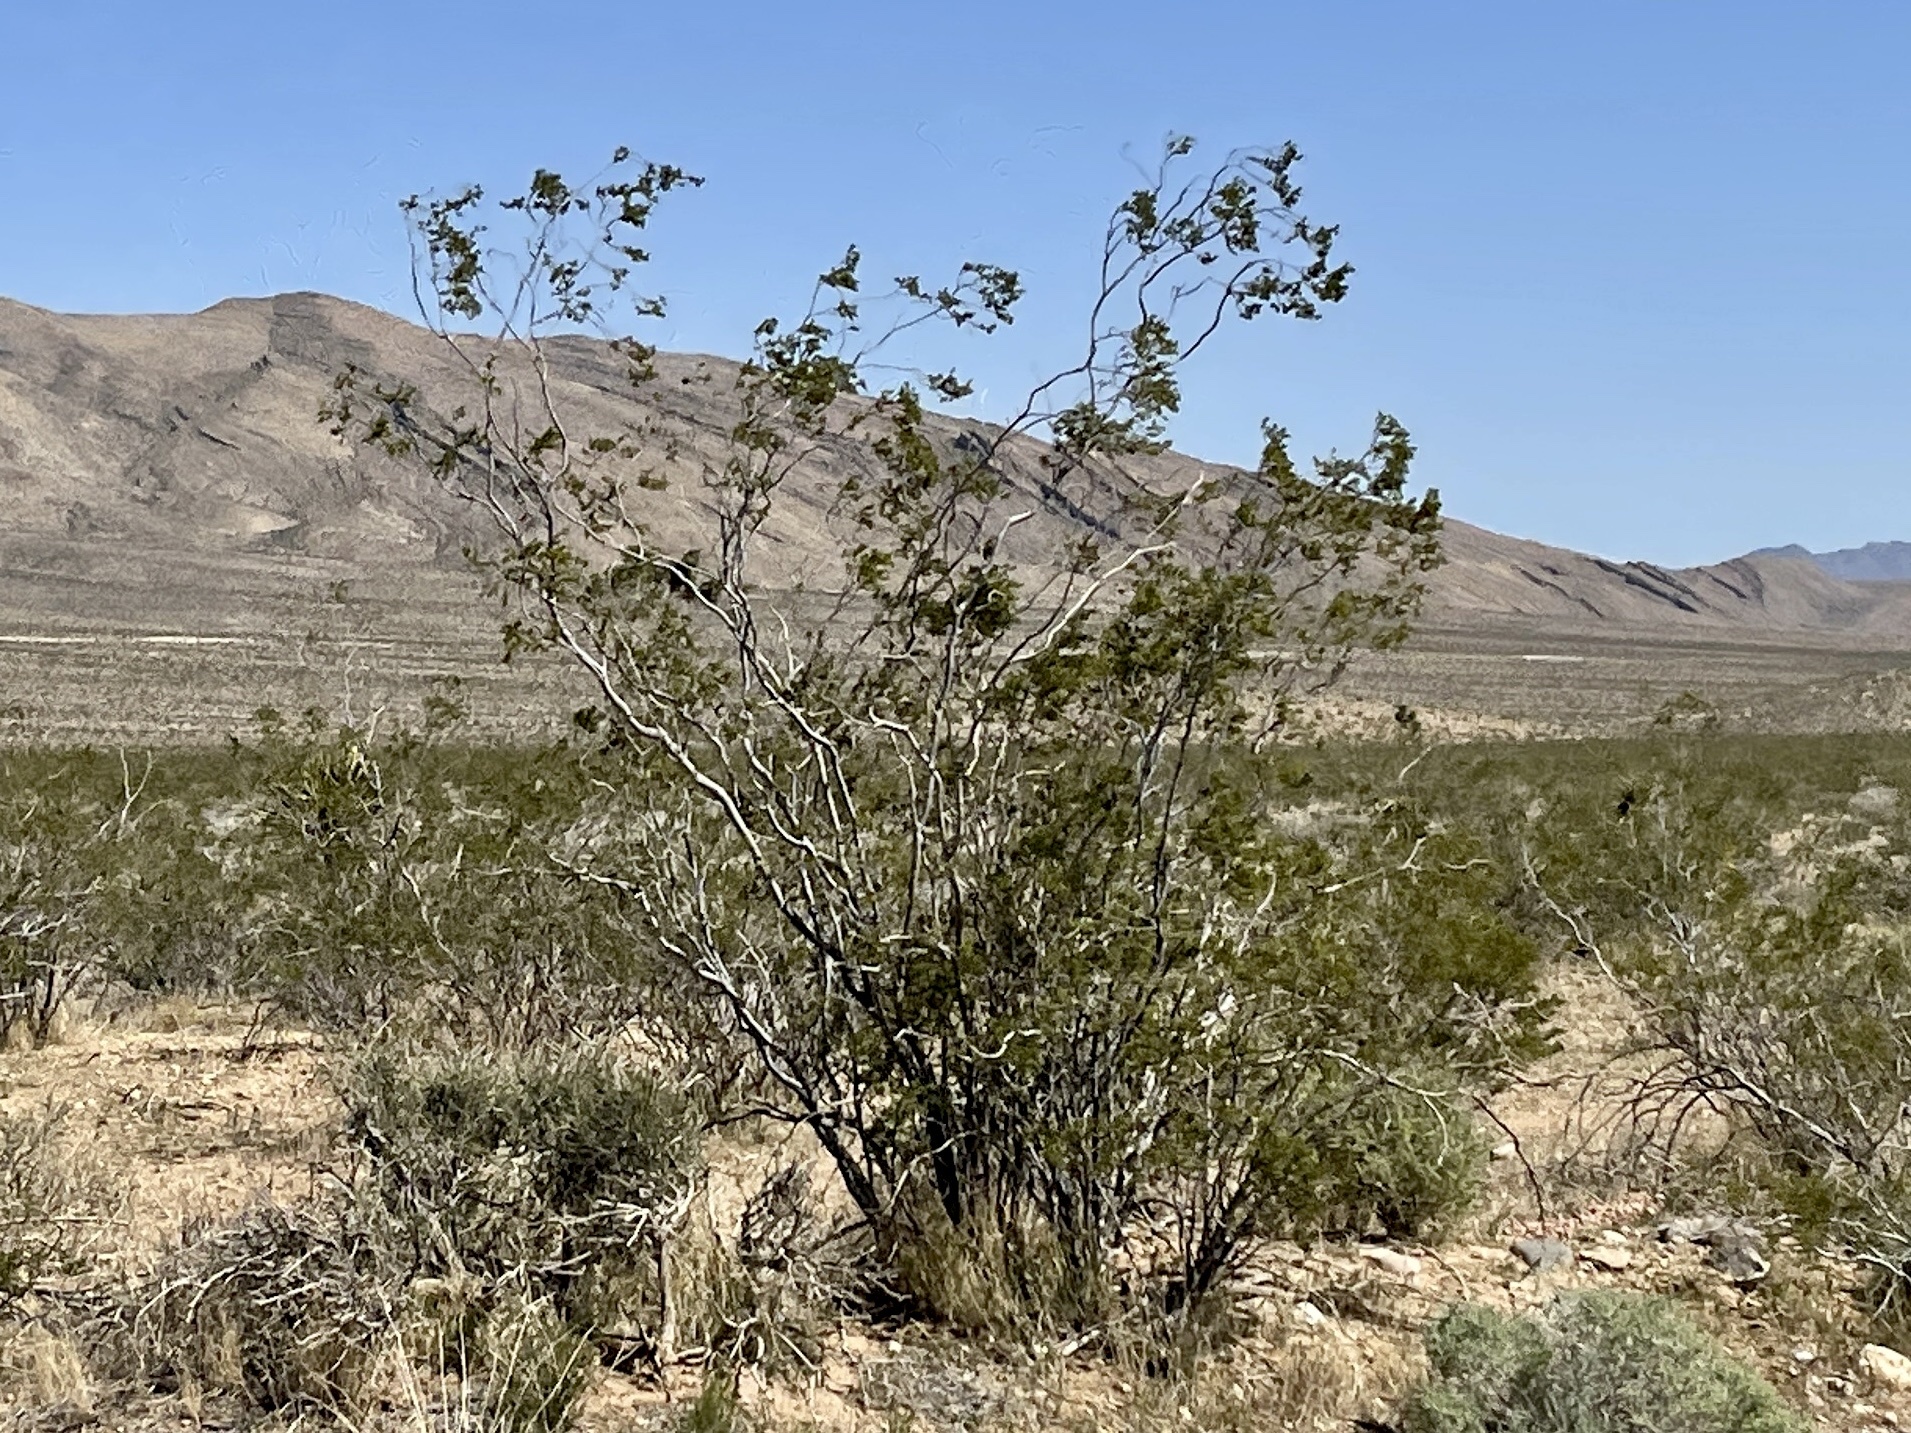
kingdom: Plantae
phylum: Tracheophyta
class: Magnoliopsida
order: Zygophyllales
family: Zygophyllaceae
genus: Larrea
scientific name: Larrea tridentata
